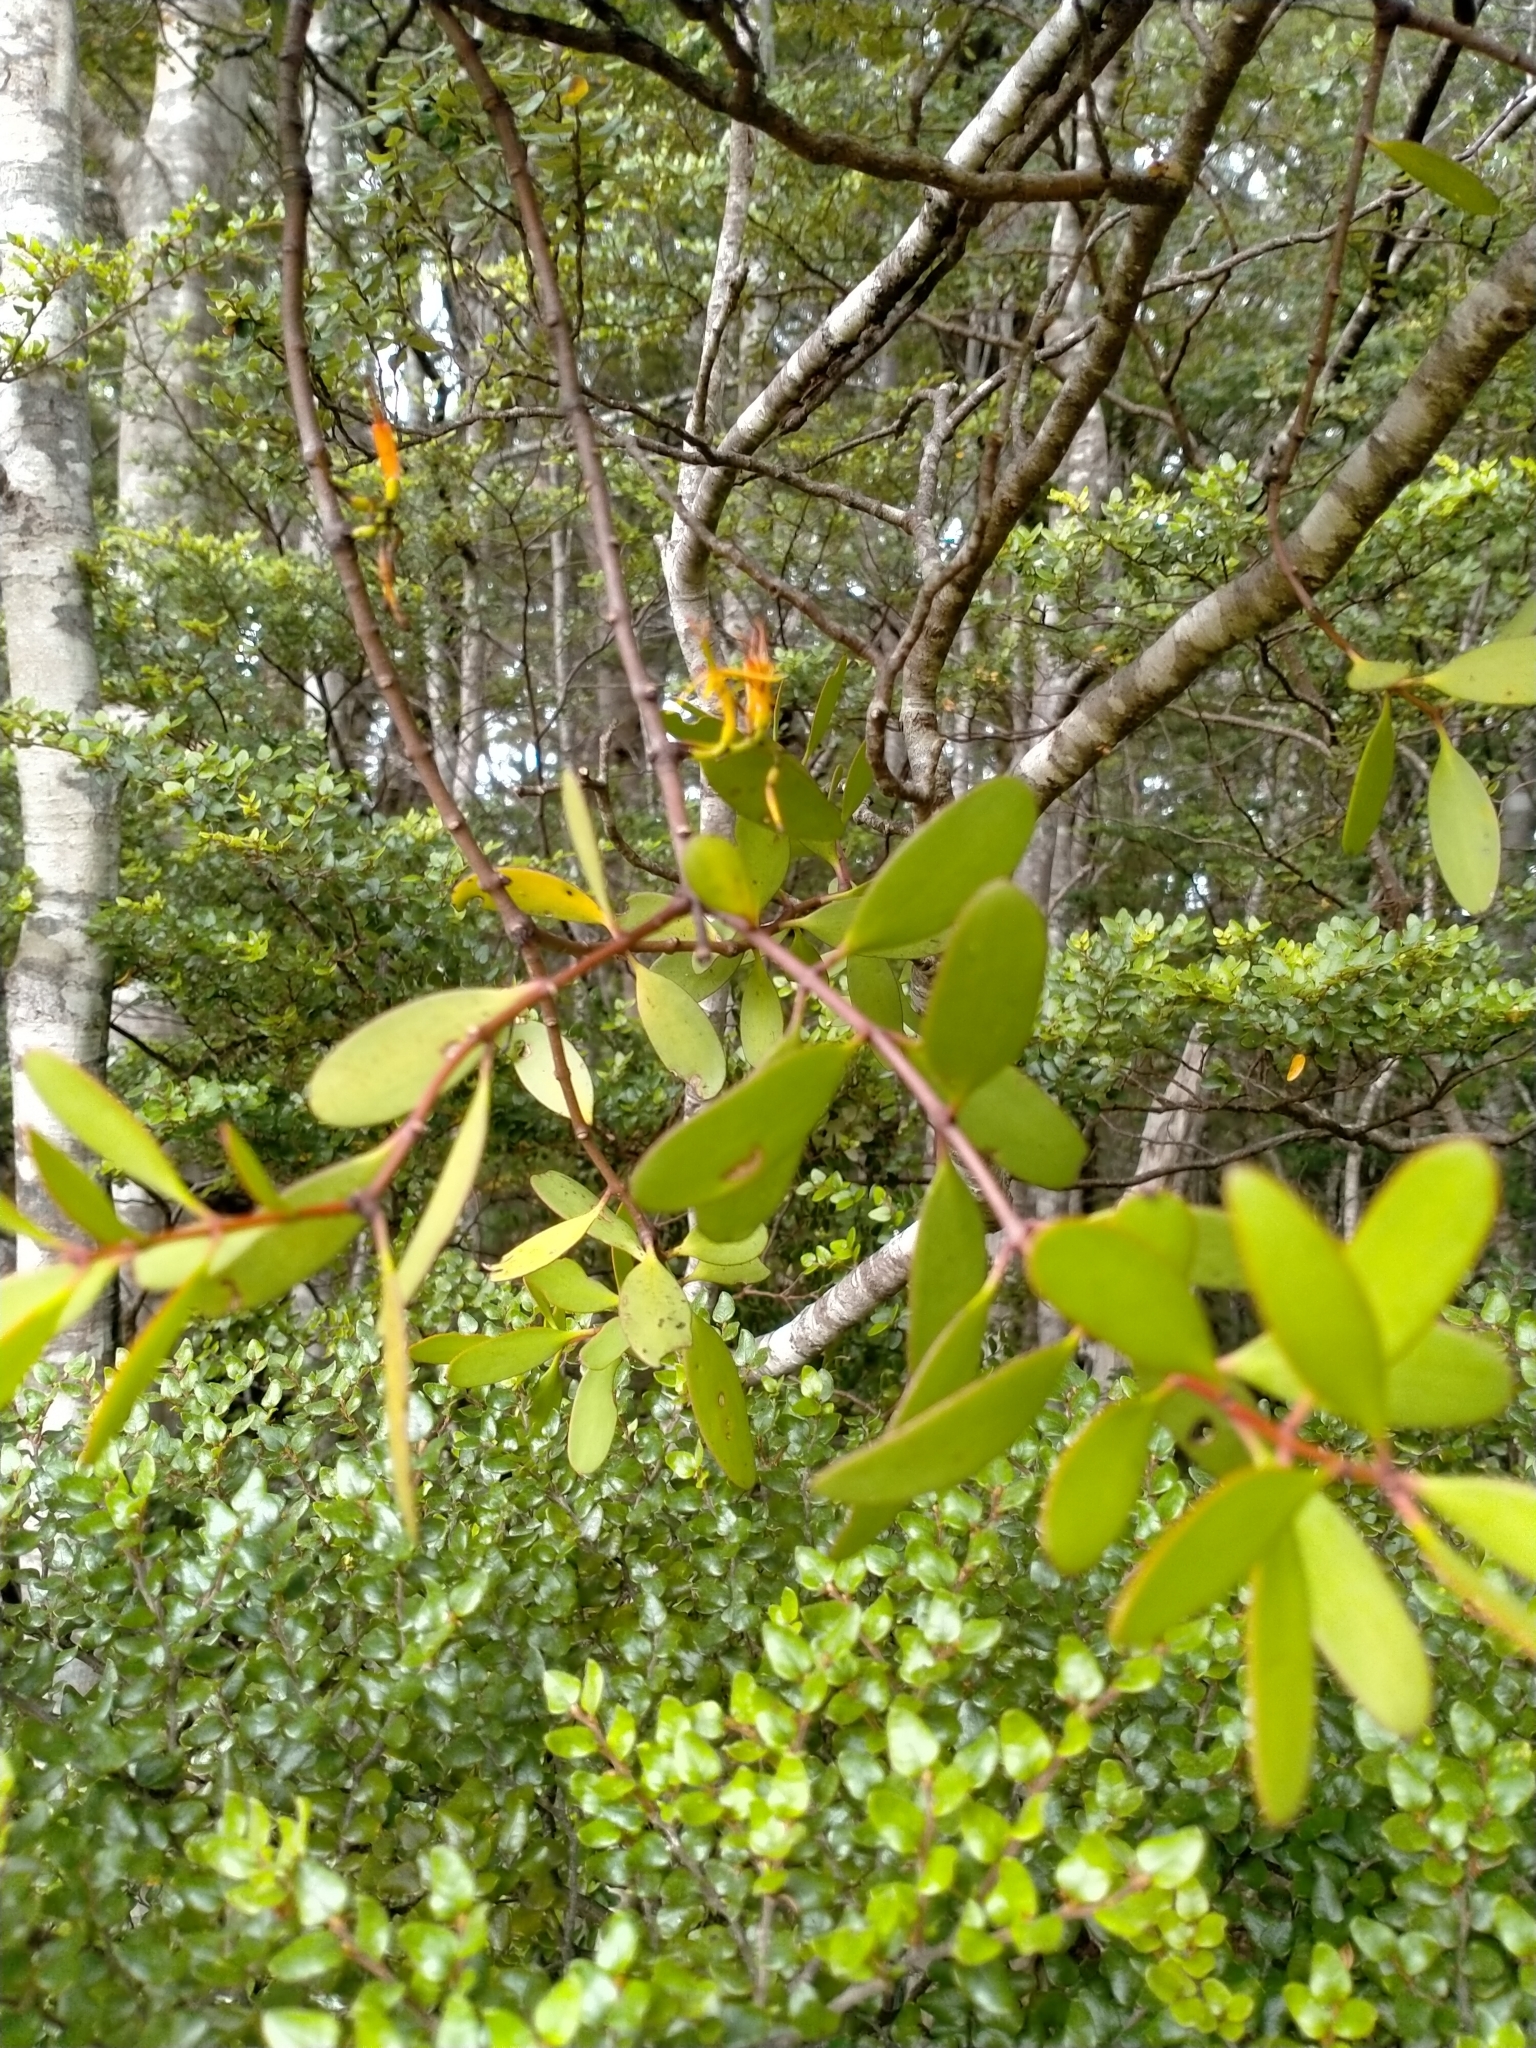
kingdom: Plantae
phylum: Tracheophyta
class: Magnoliopsida
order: Santalales
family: Loranthaceae
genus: Alepis
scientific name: Alepis flavida
